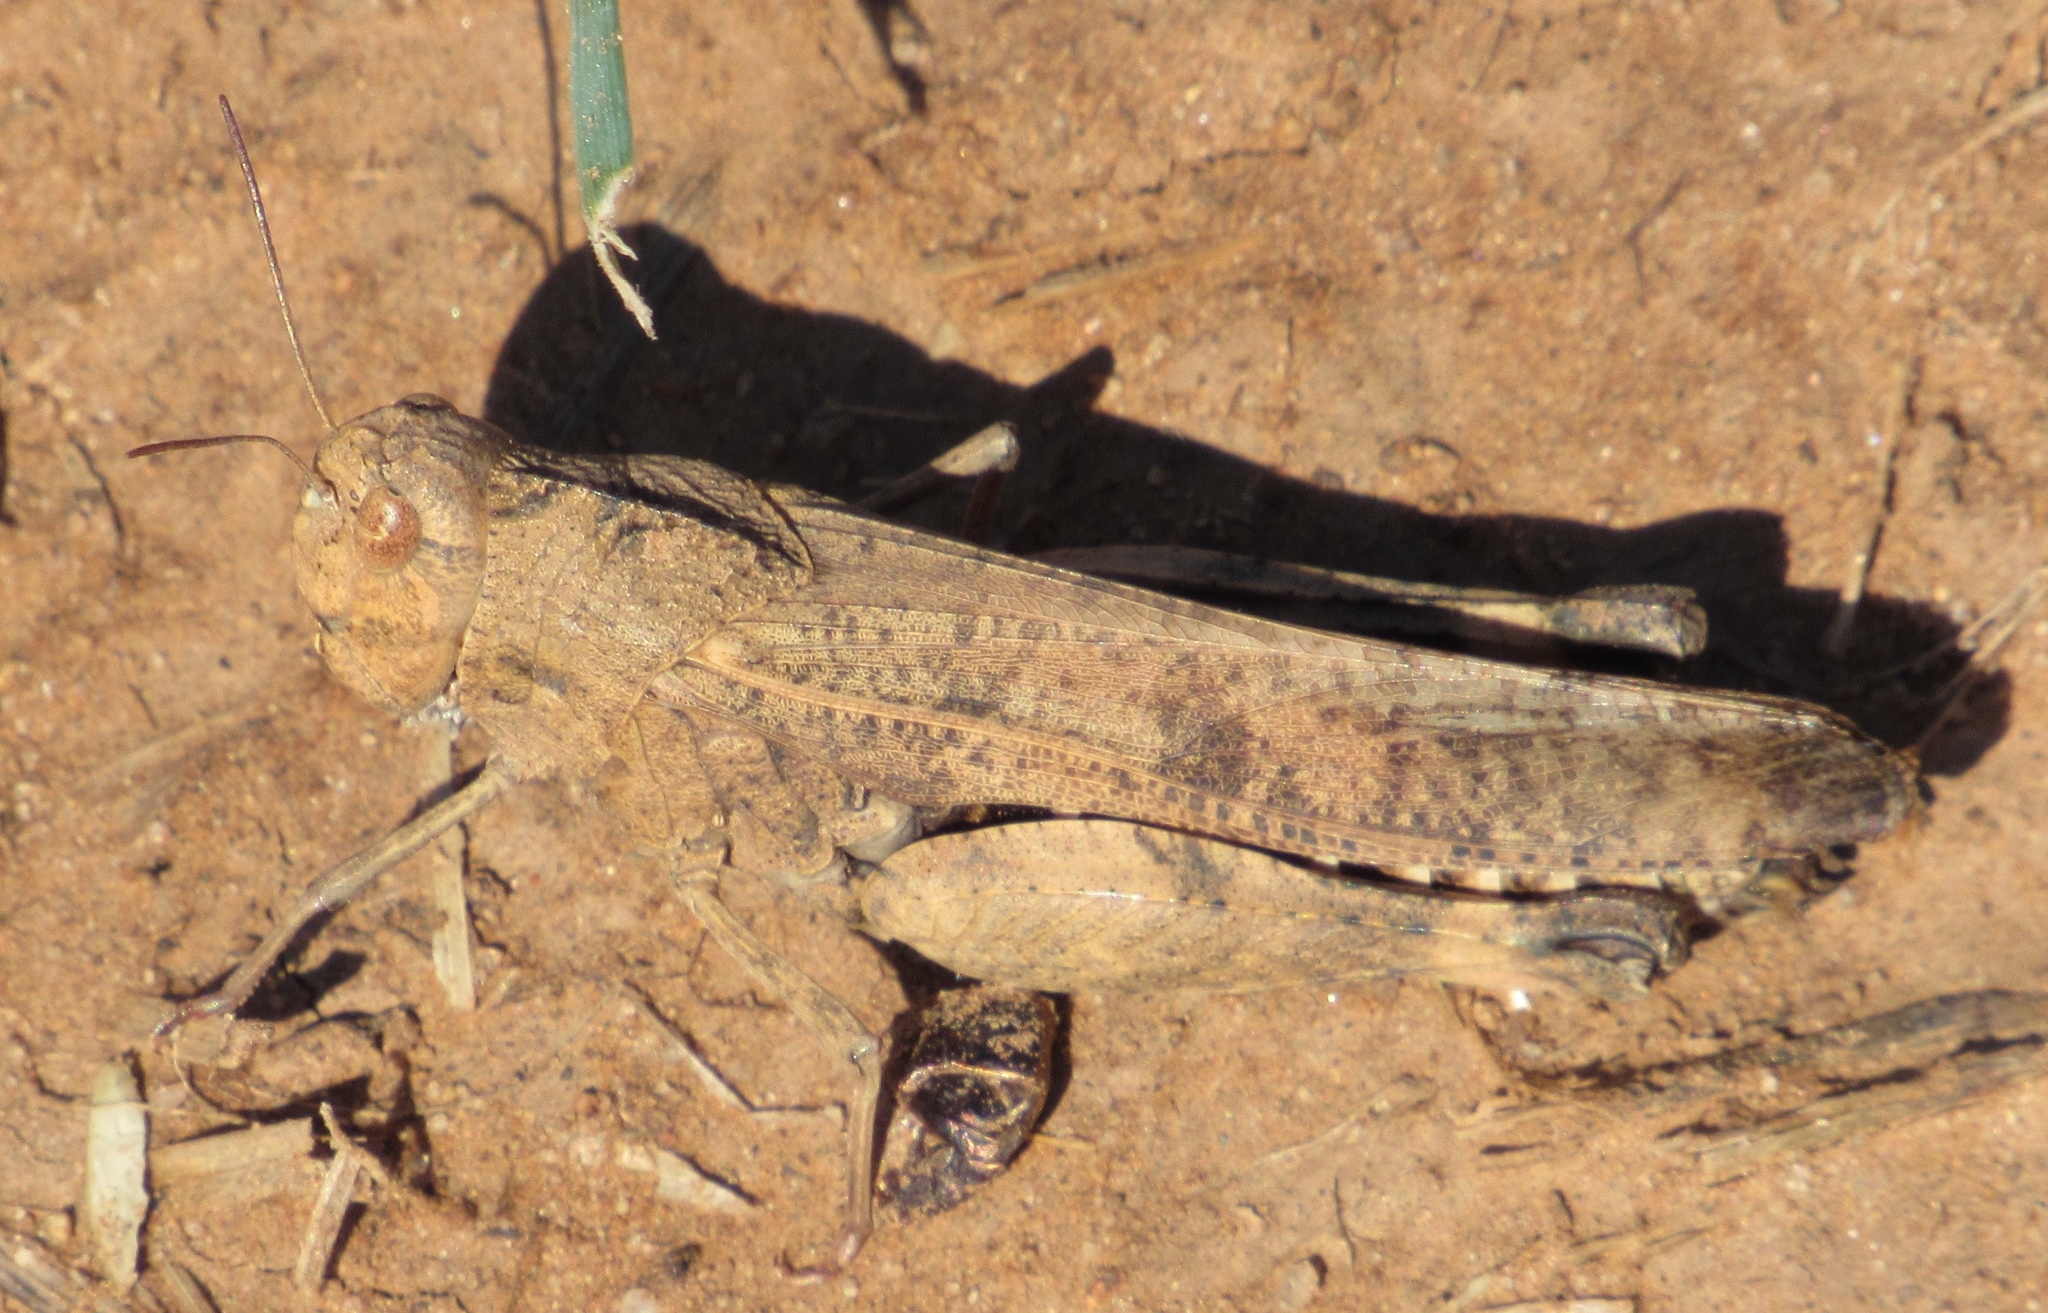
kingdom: Animalia
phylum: Arthropoda
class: Insecta
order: Orthoptera
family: Acrididae
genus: Dissosteira
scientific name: Dissosteira carolina
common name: Carolina grasshopper
